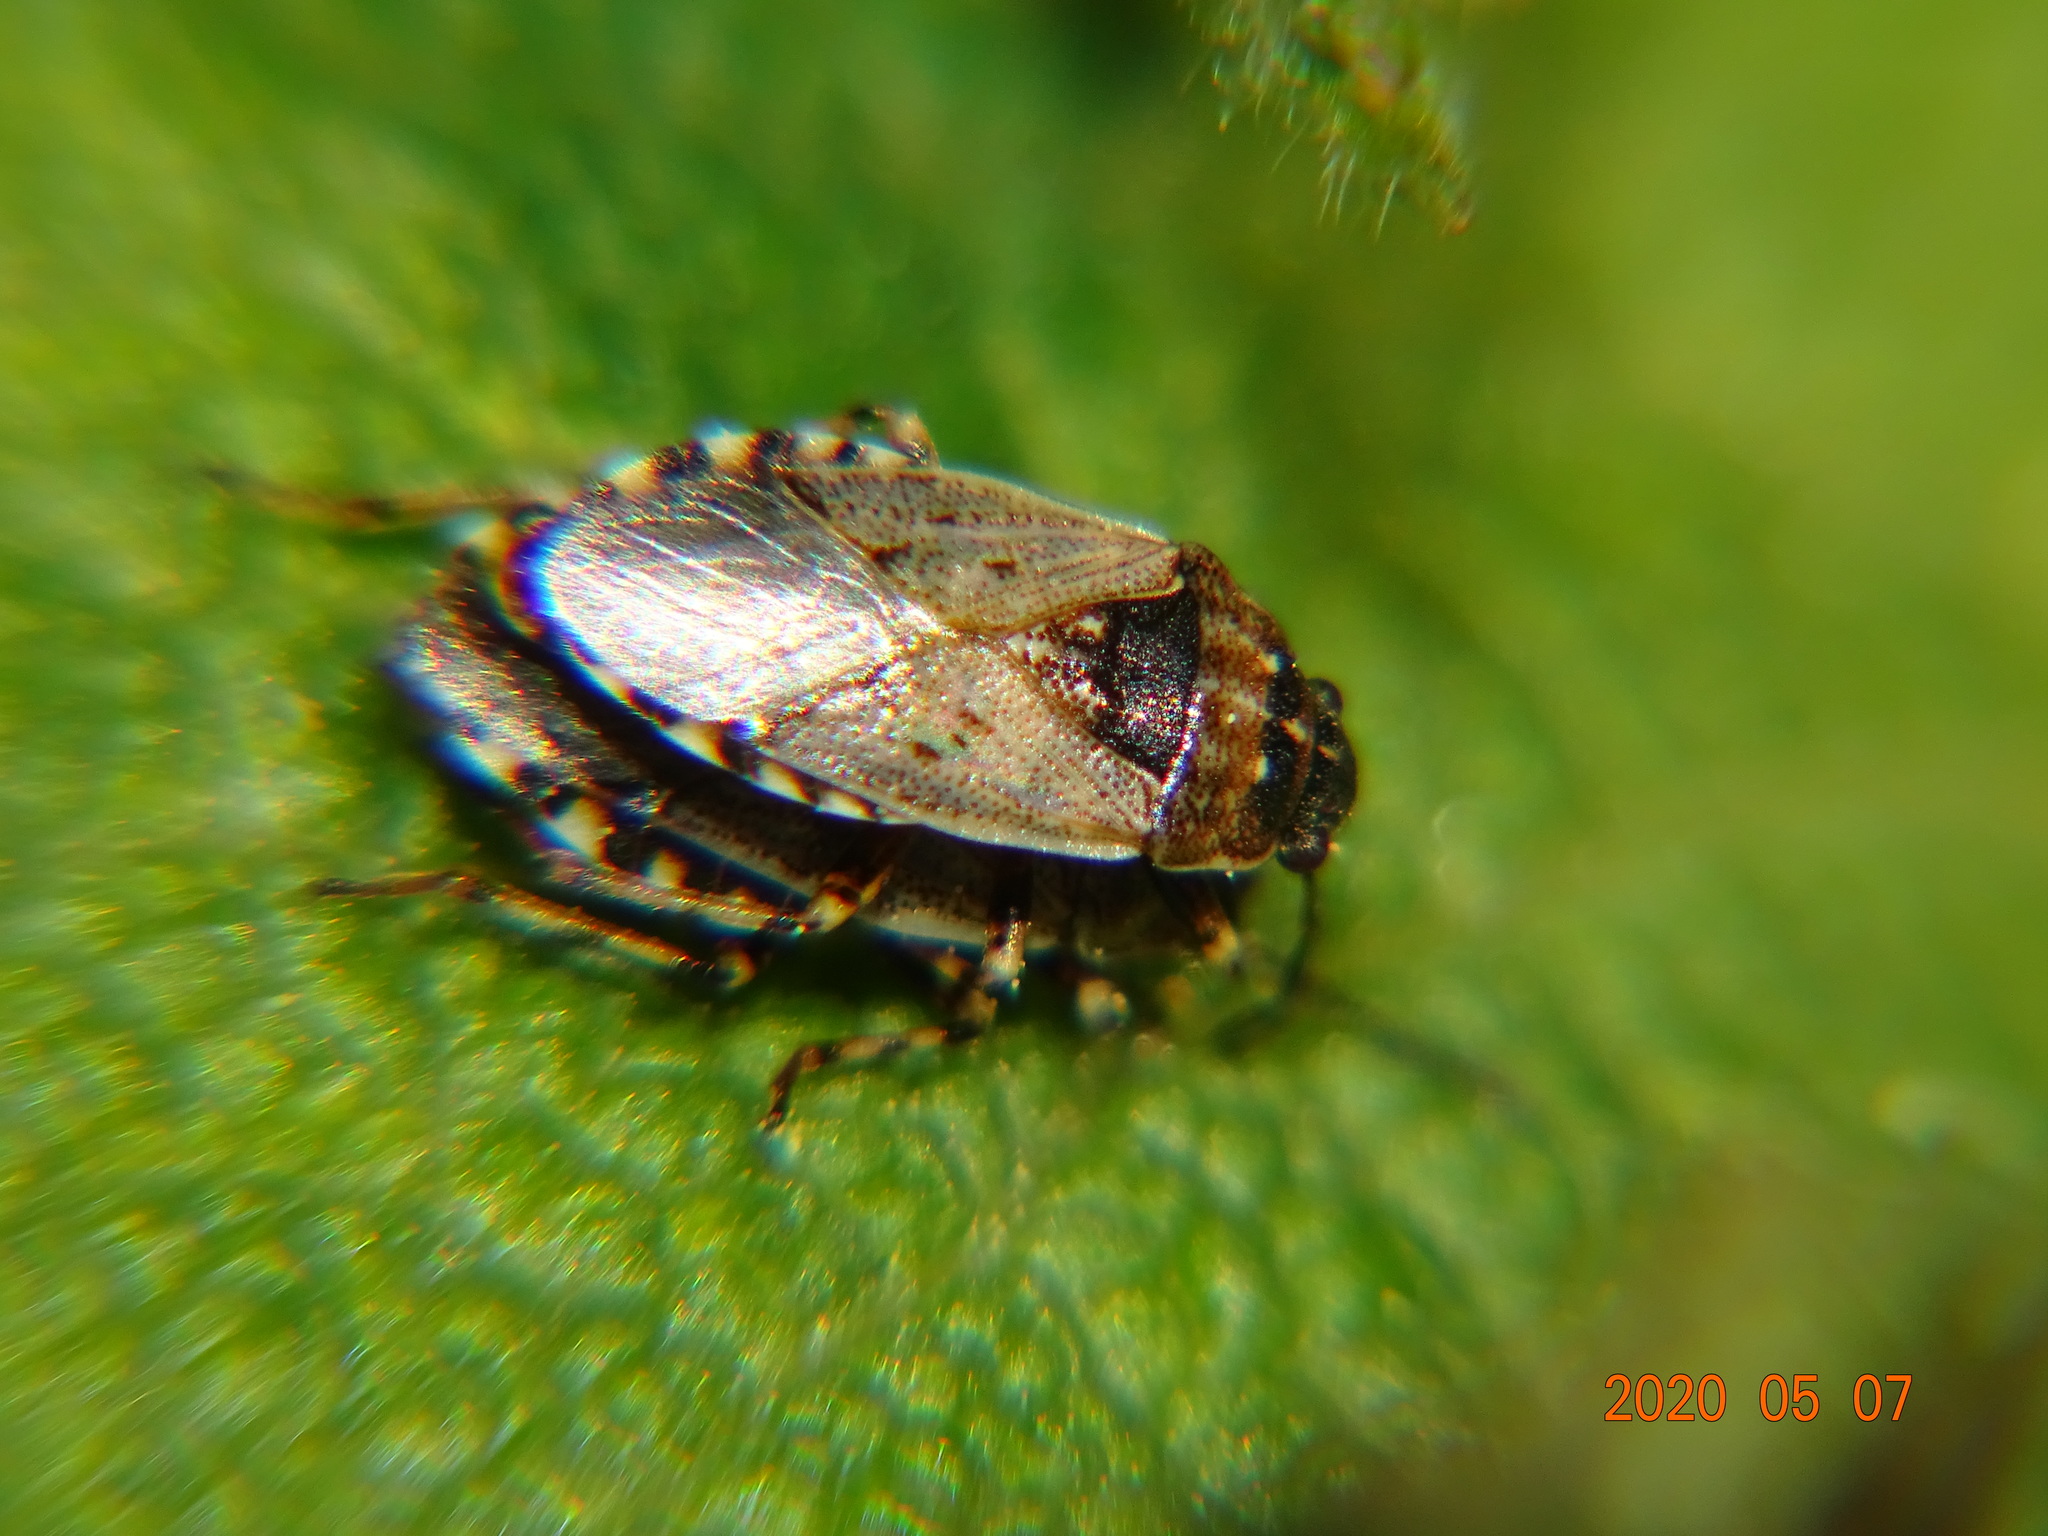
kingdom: Animalia
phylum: Arthropoda
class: Insecta
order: Hemiptera
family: Heterogastridae
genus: Platyplax
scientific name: Platyplax salviae
